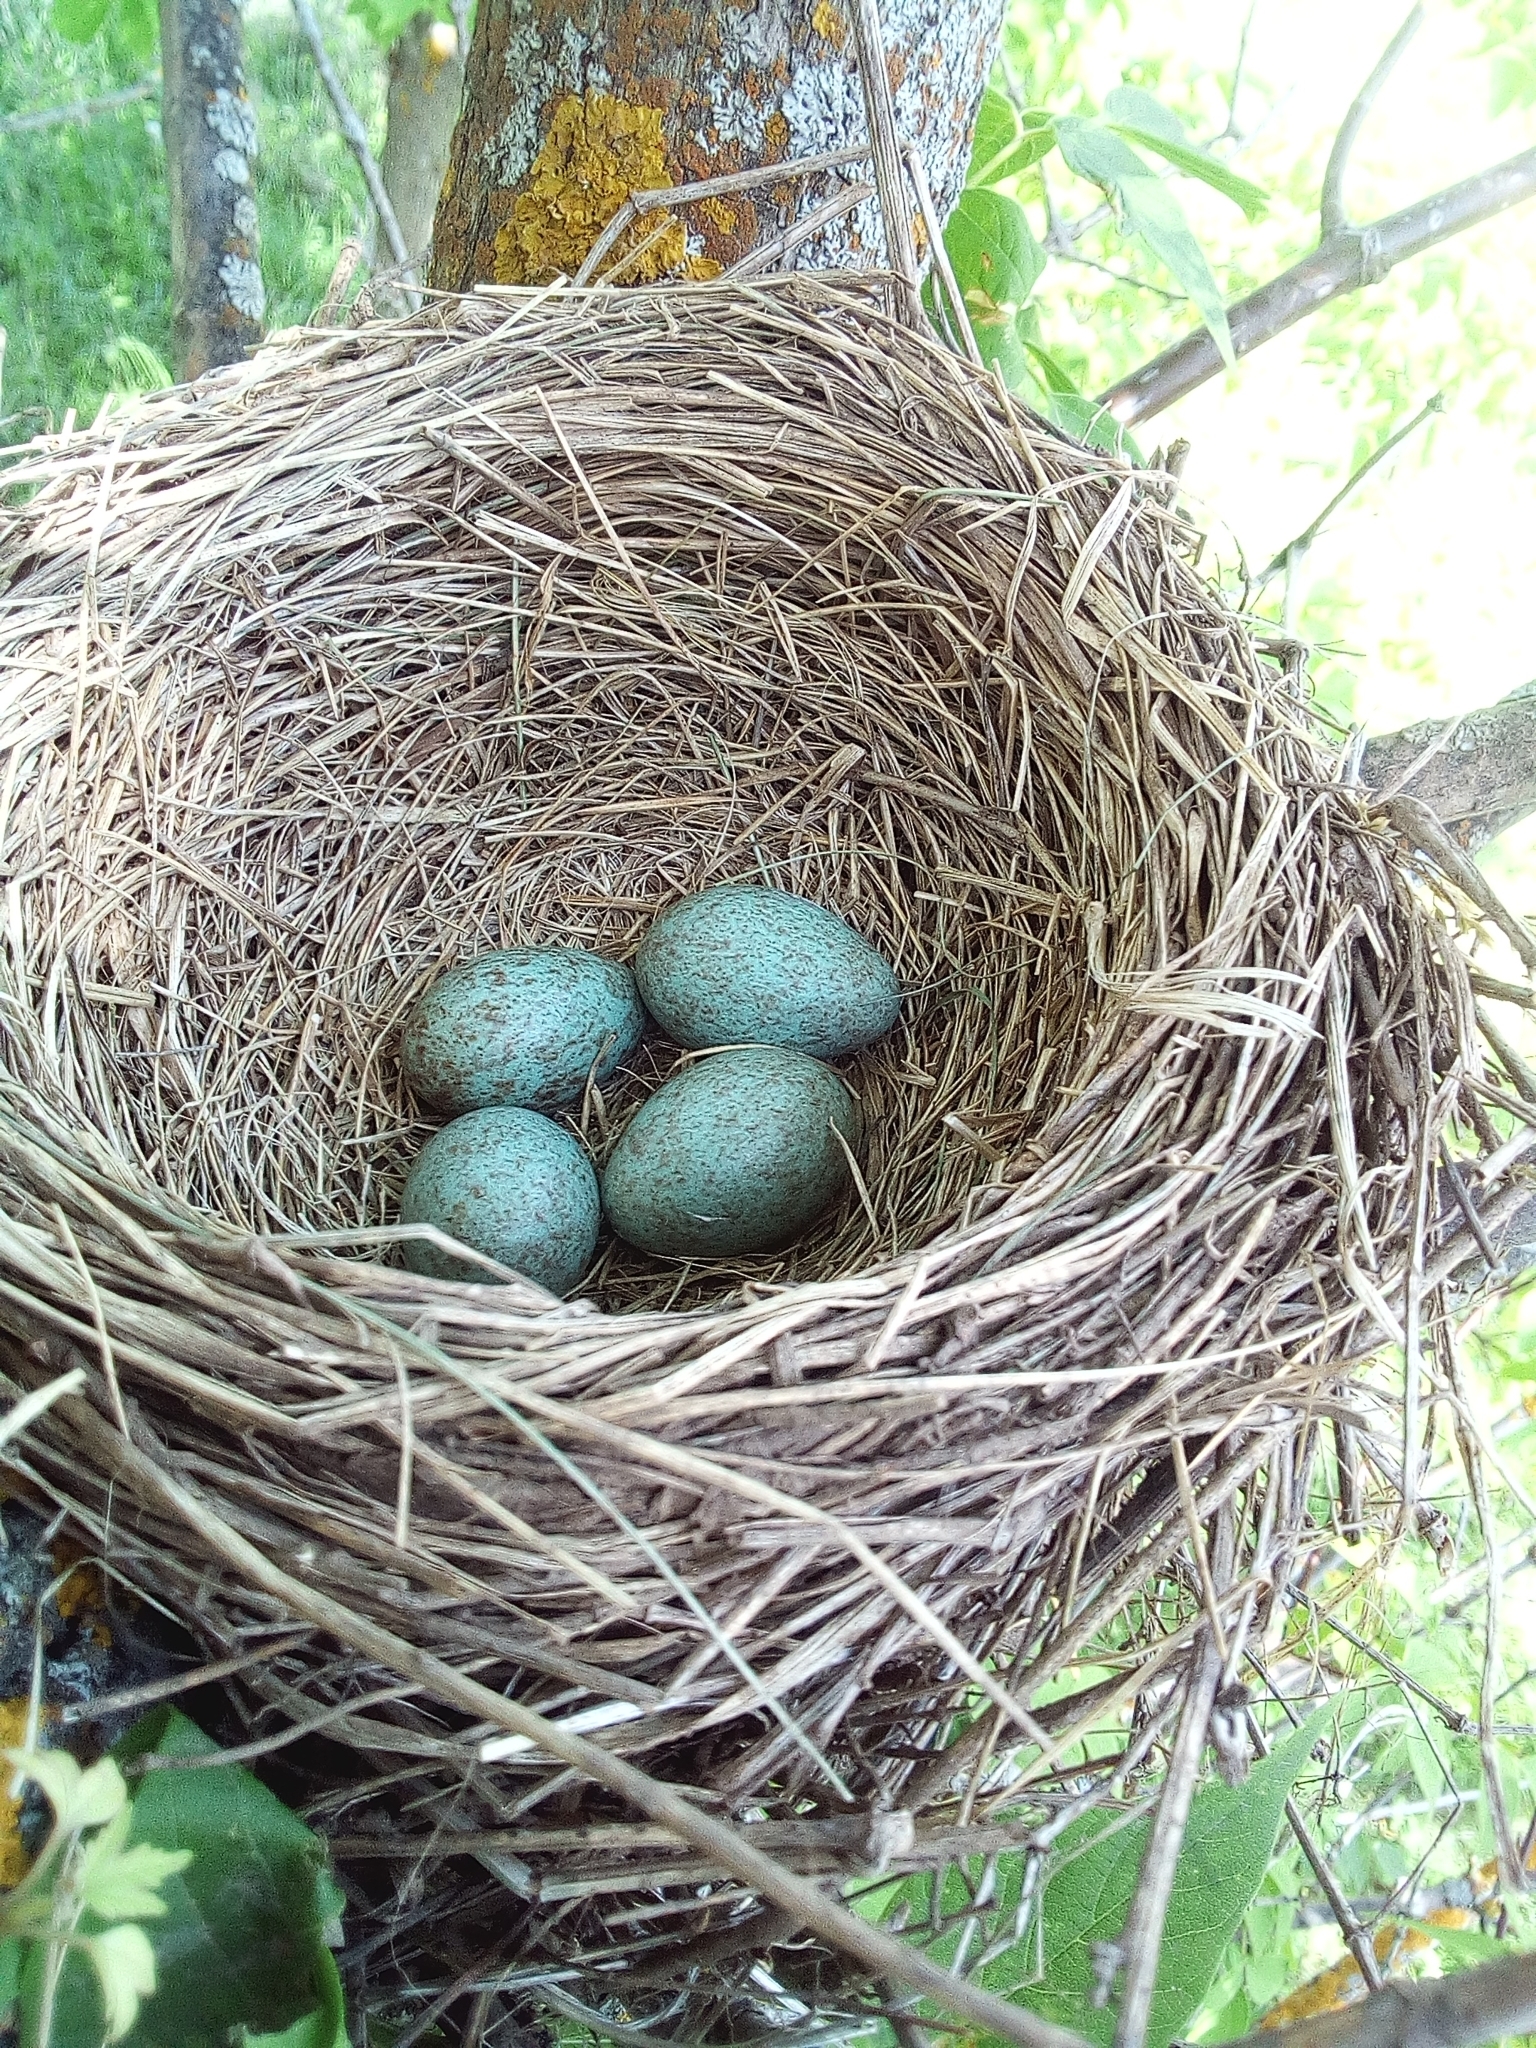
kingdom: Animalia
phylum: Chordata
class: Aves
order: Passeriformes
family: Turdidae
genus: Turdus
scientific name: Turdus pilaris
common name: Fieldfare
